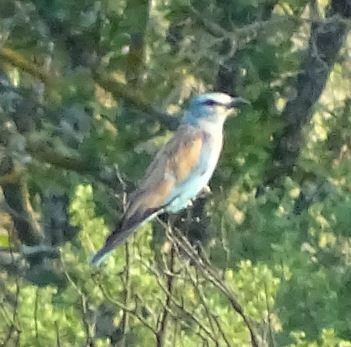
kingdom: Animalia
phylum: Chordata
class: Aves
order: Coraciiformes
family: Coraciidae
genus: Coracias
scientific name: Coracias garrulus
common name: European roller
